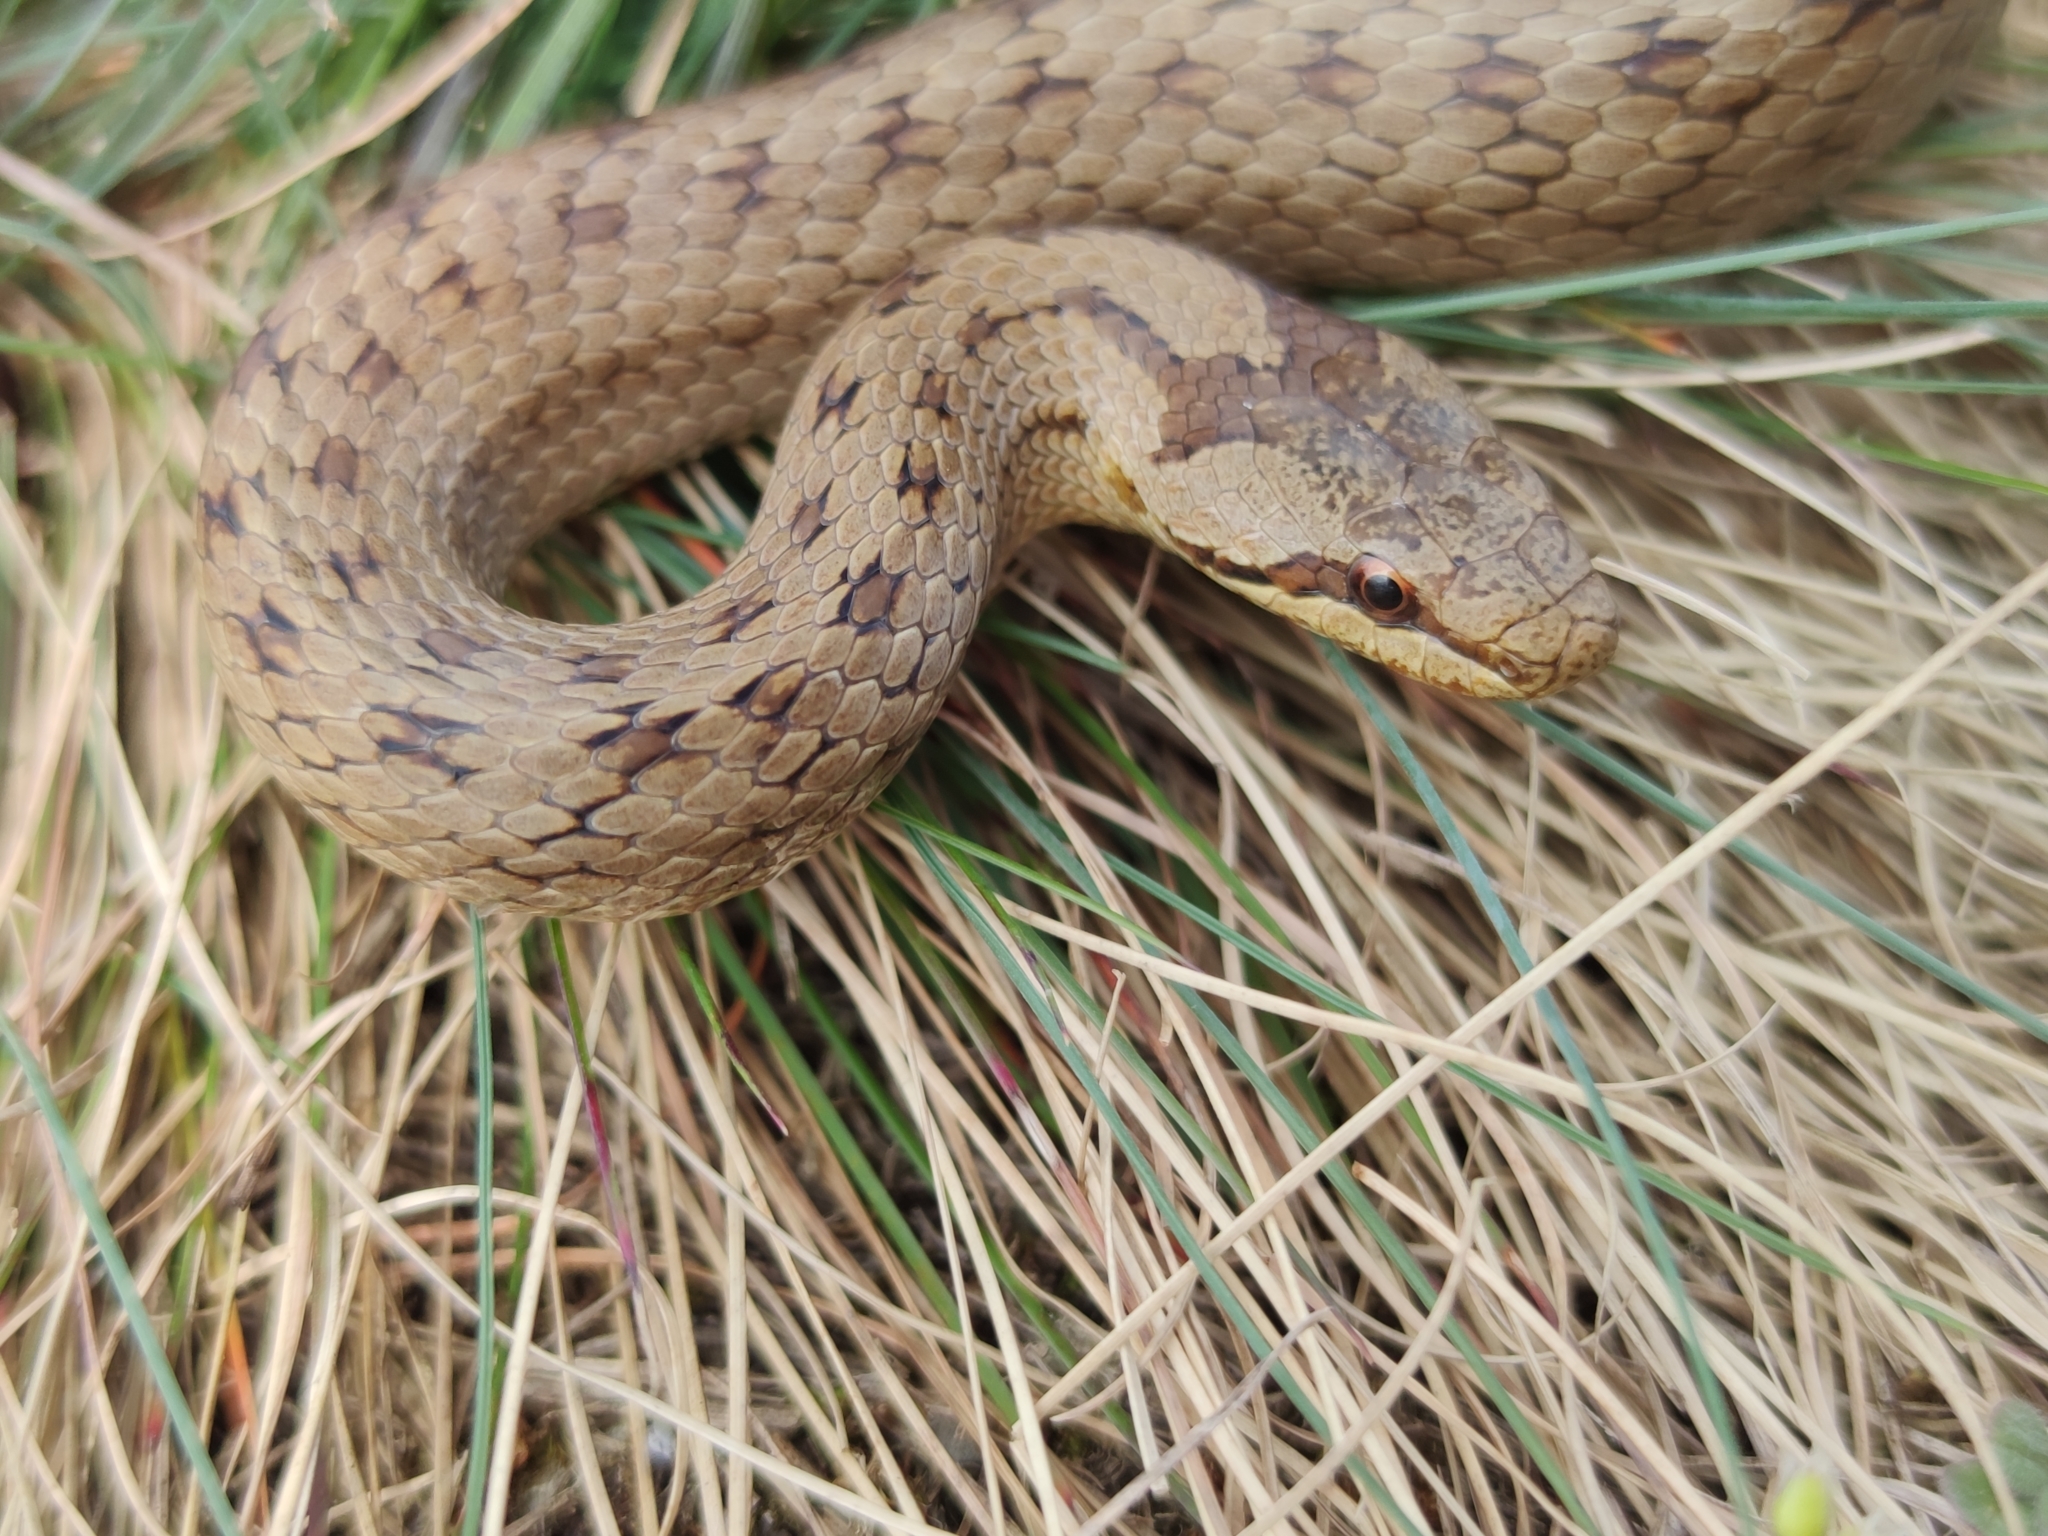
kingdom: Animalia
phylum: Chordata
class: Squamata
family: Colubridae
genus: Coronella
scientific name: Coronella austriaca
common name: Smooth snake
